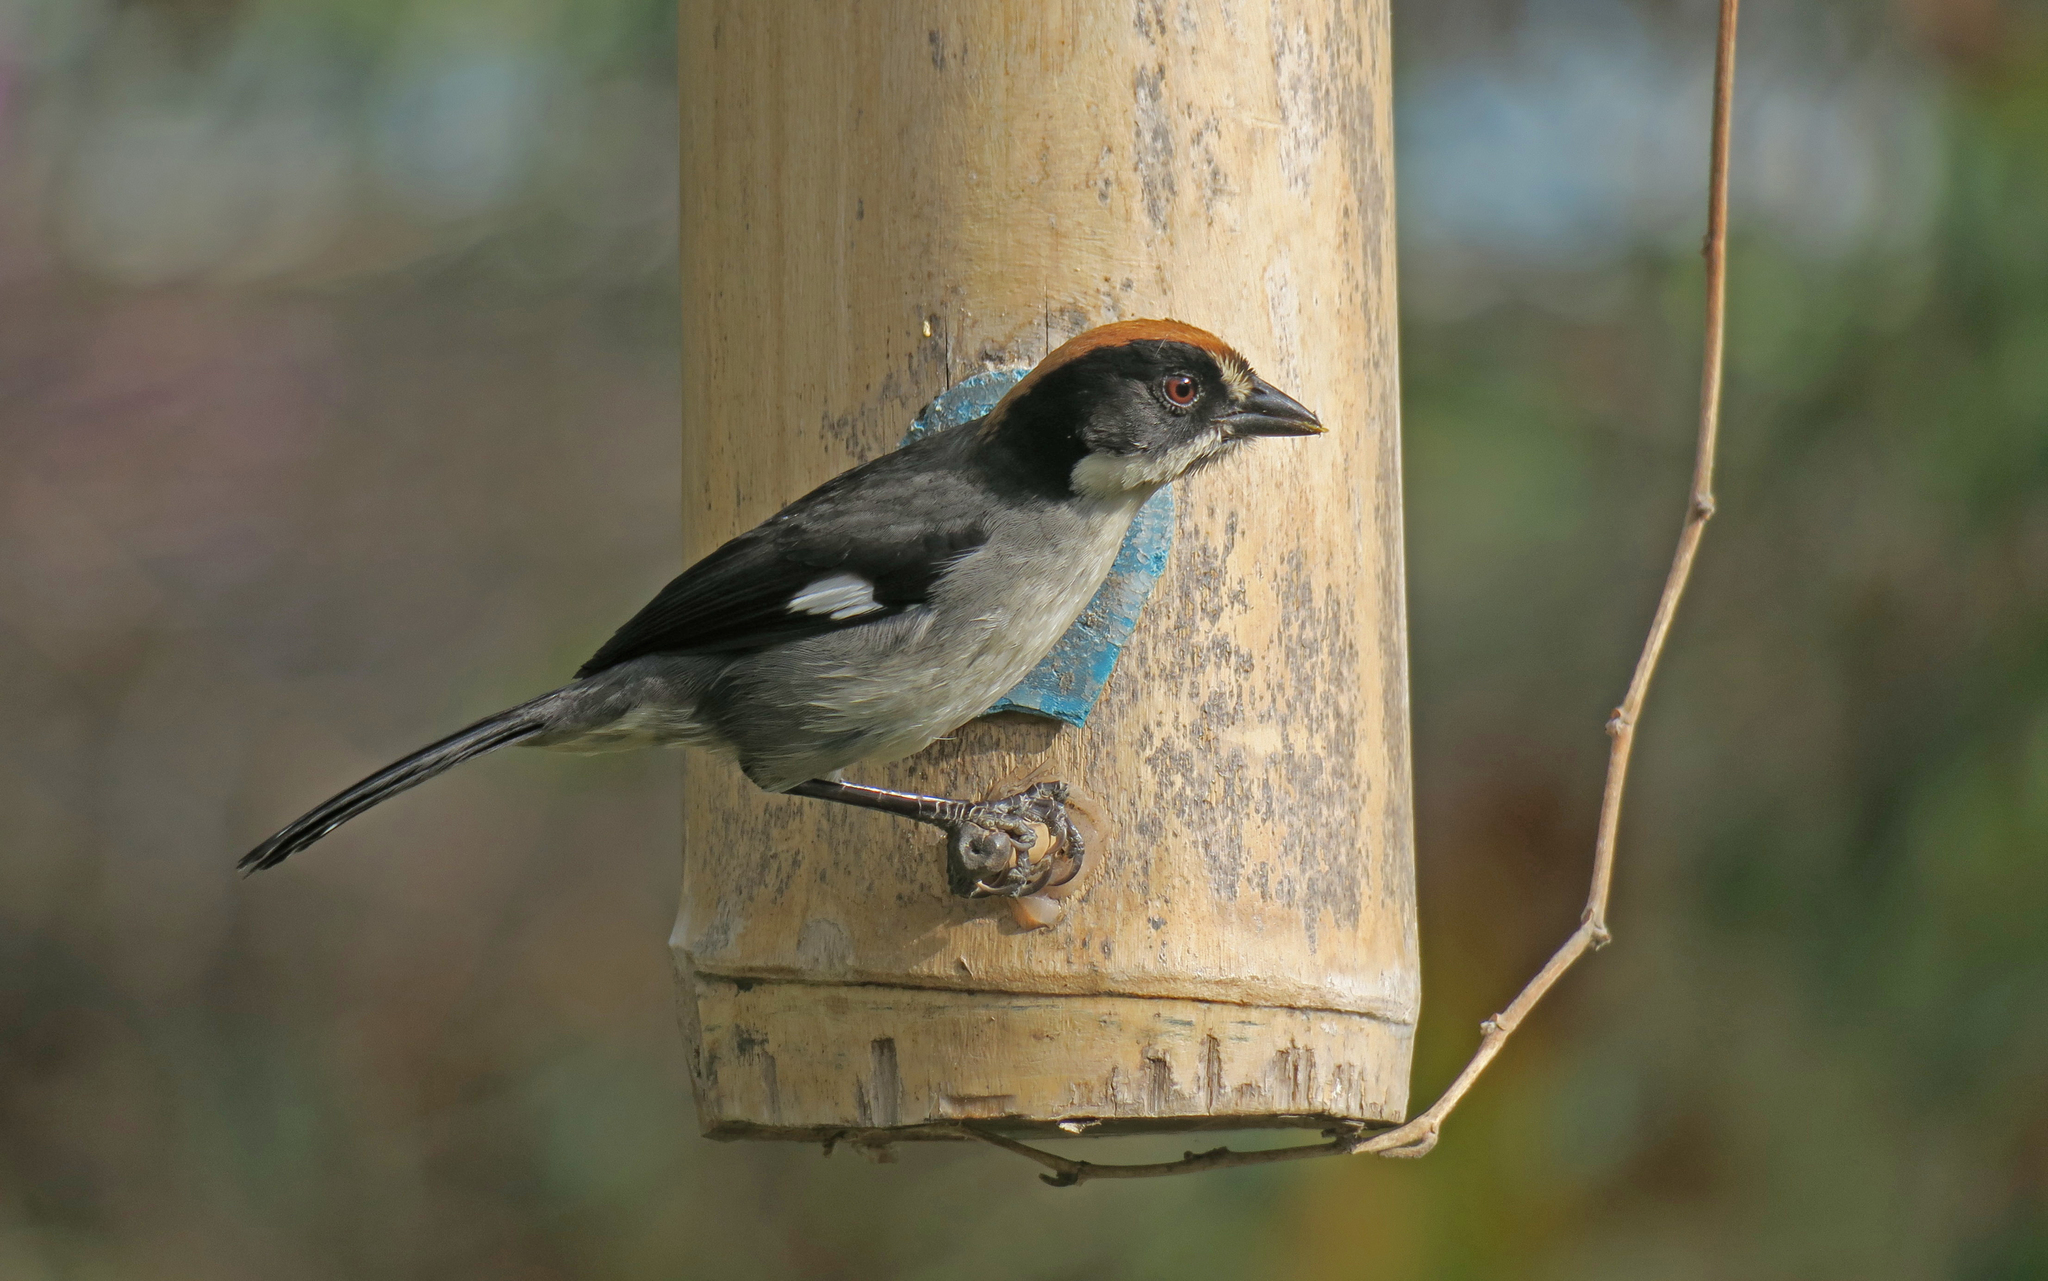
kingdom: Animalia
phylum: Chordata
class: Aves
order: Passeriformes
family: Passerellidae
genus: Atlapetes
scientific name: Atlapetes leucopterus
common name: White-winged brushfinch
